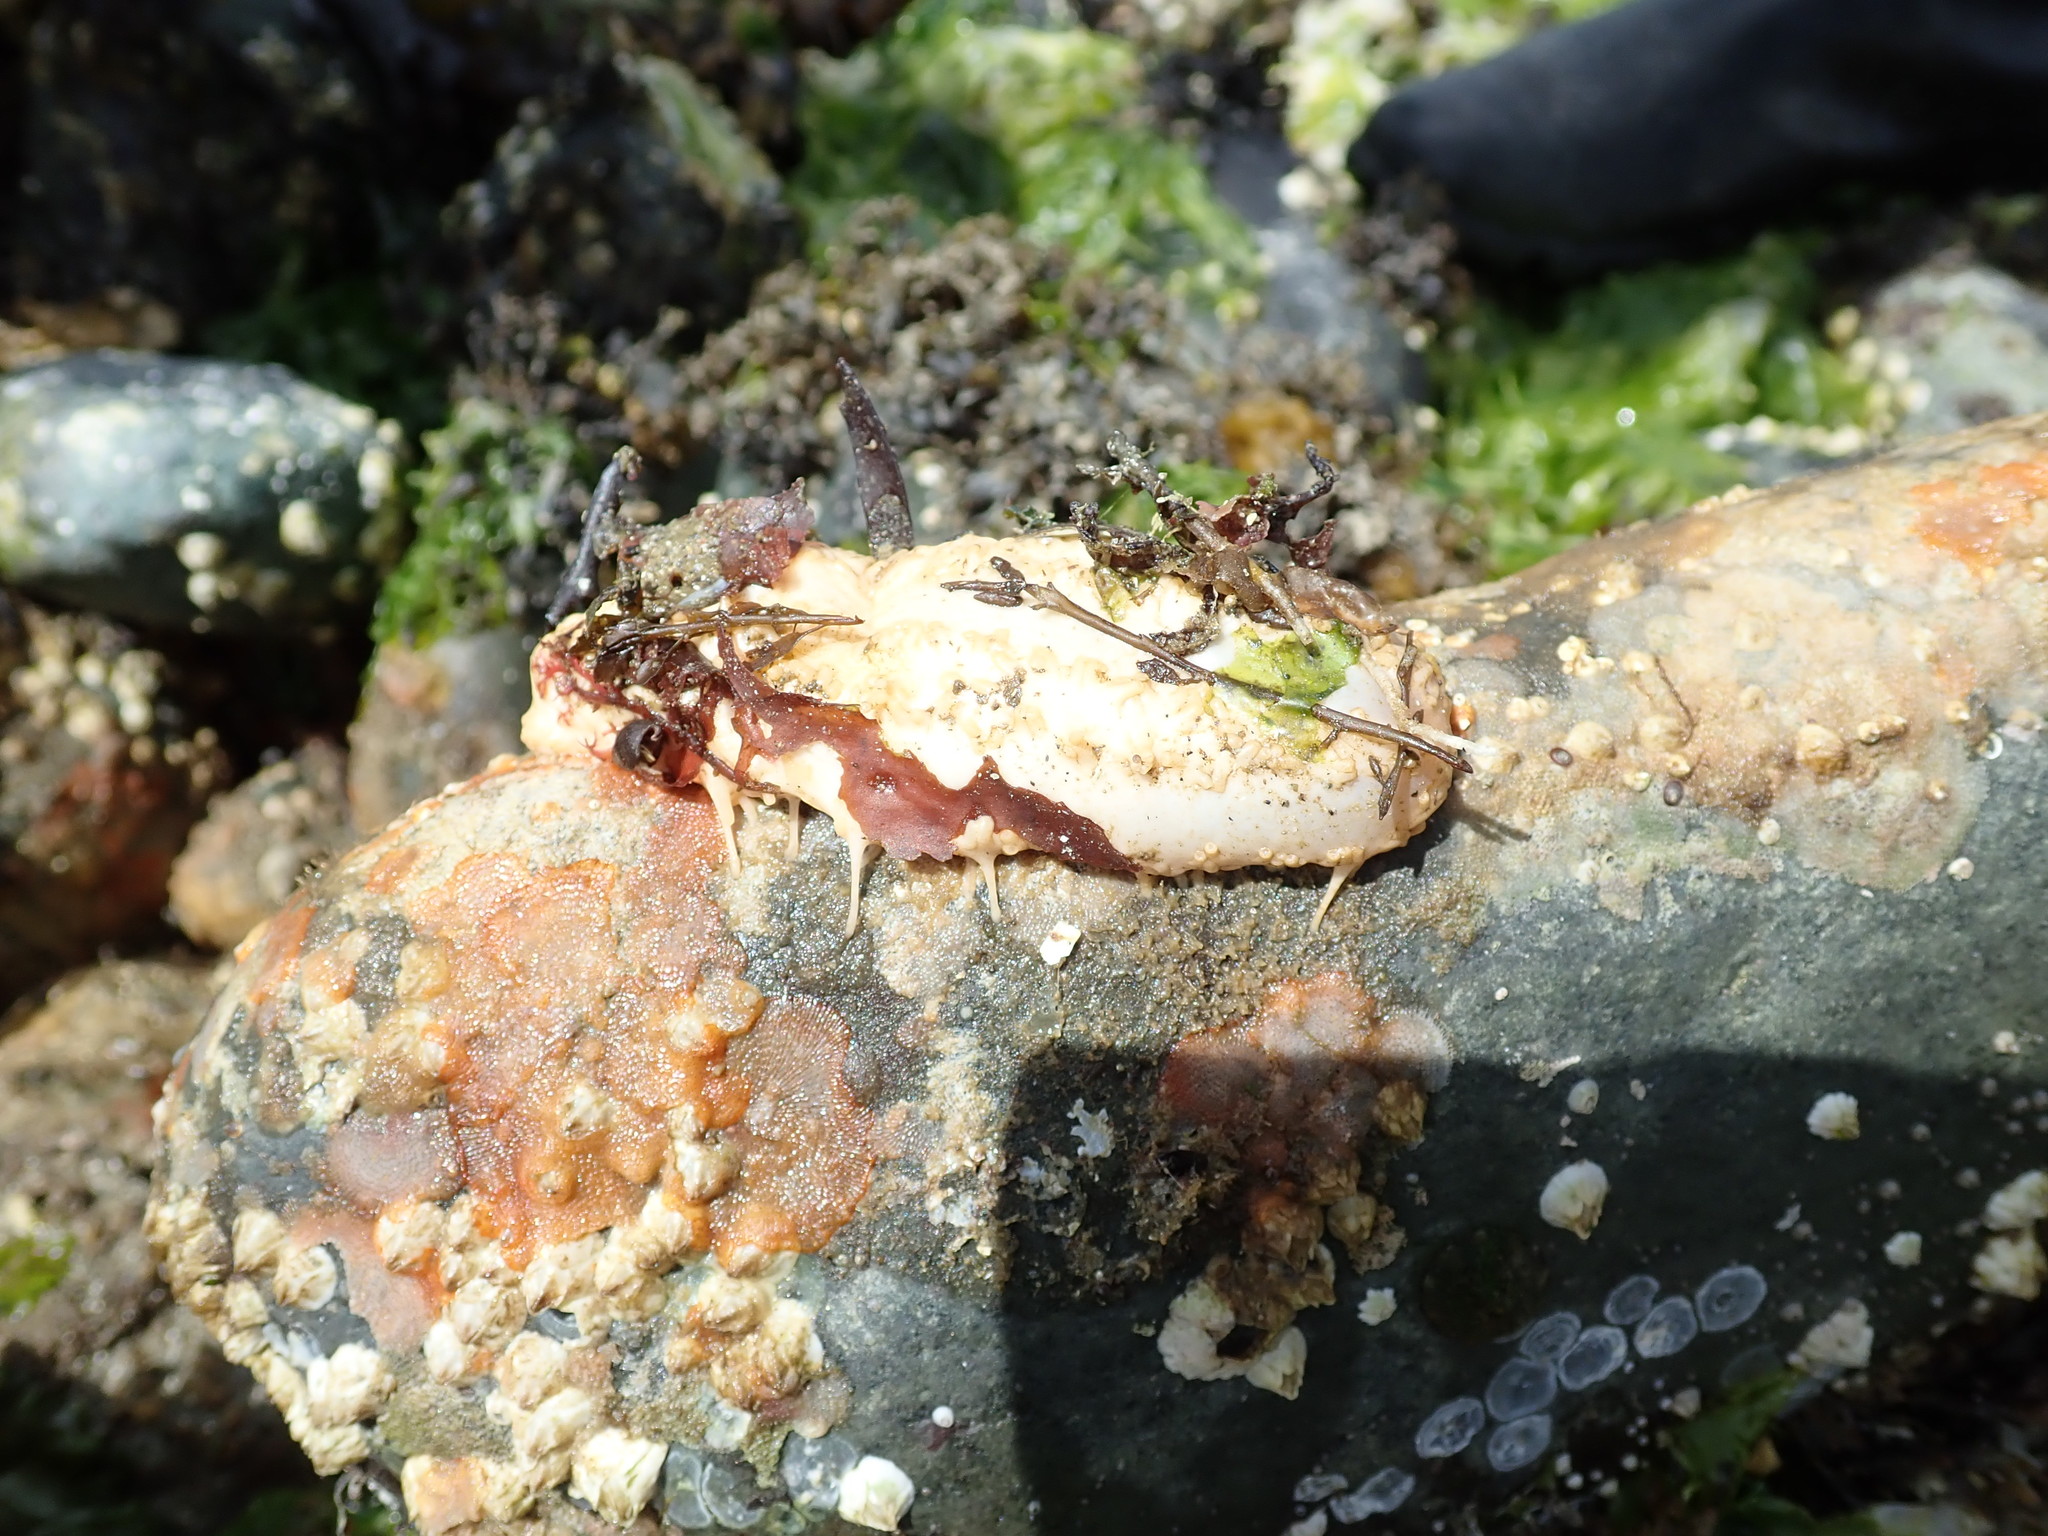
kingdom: Animalia
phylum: Echinodermata
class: Holothuroidea
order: Dendrochirotida
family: Sclerodactylidae
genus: Eupentacta
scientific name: Eupentacta quinquesemita
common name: Pentamerous sea cucumber
